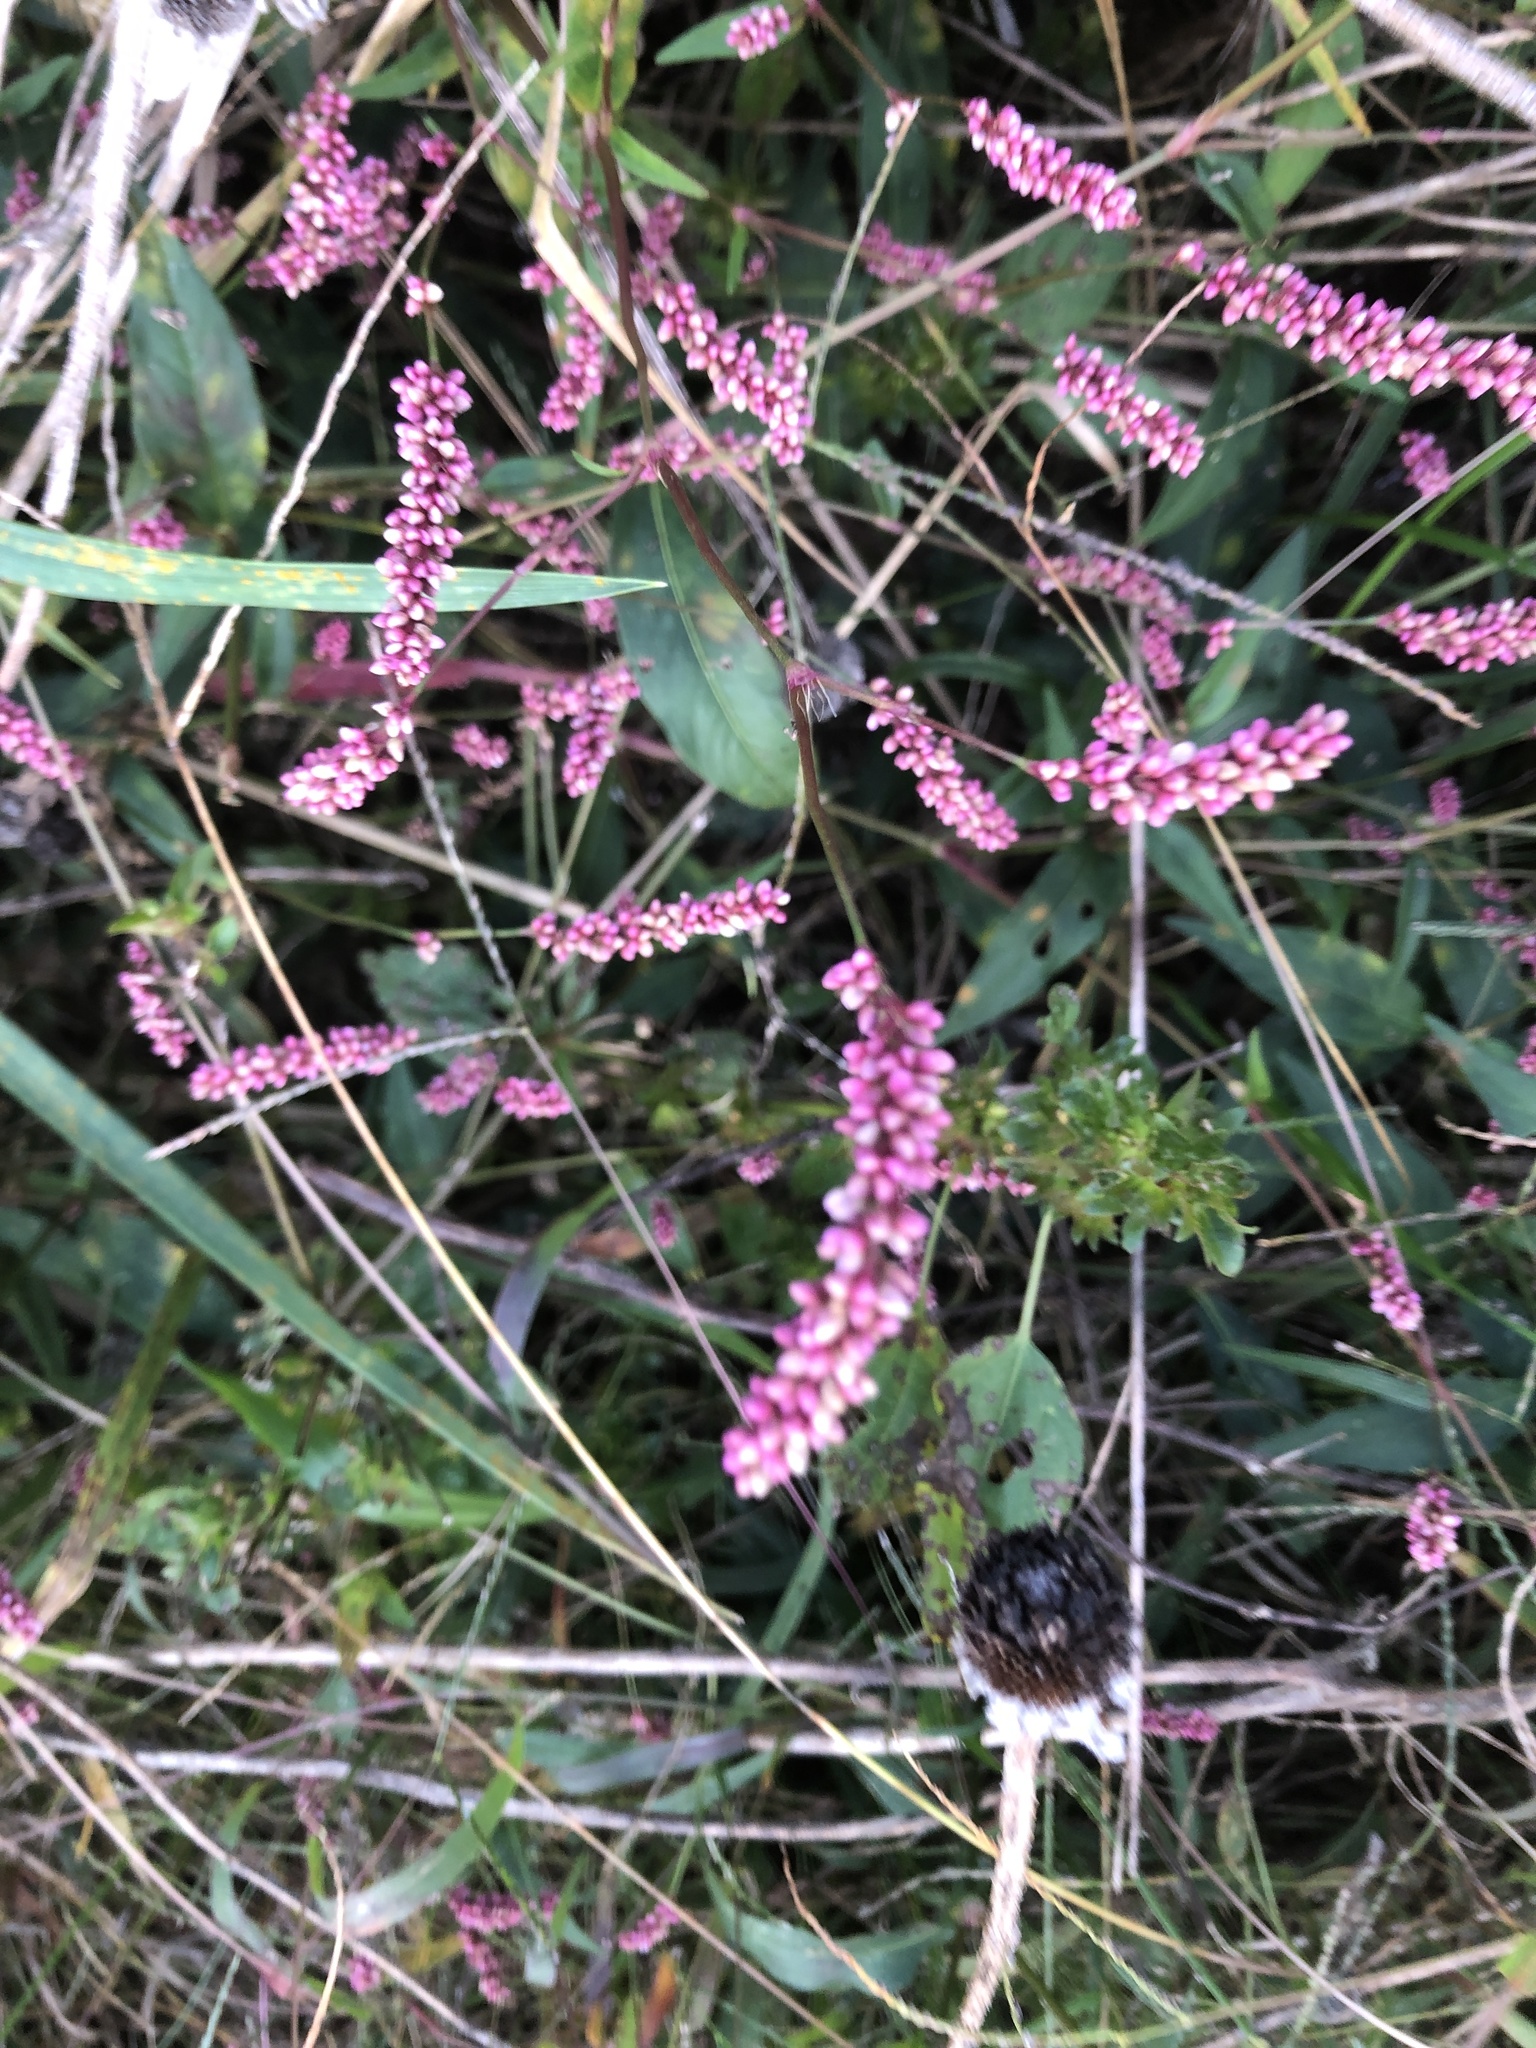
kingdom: Plantae
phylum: Tracheophyta
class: Magnoliopsida
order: Caryophyllales
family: Polygonaceae
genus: Persicaria
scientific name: Persicaria longiseta
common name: Bristly lady's-thumb
